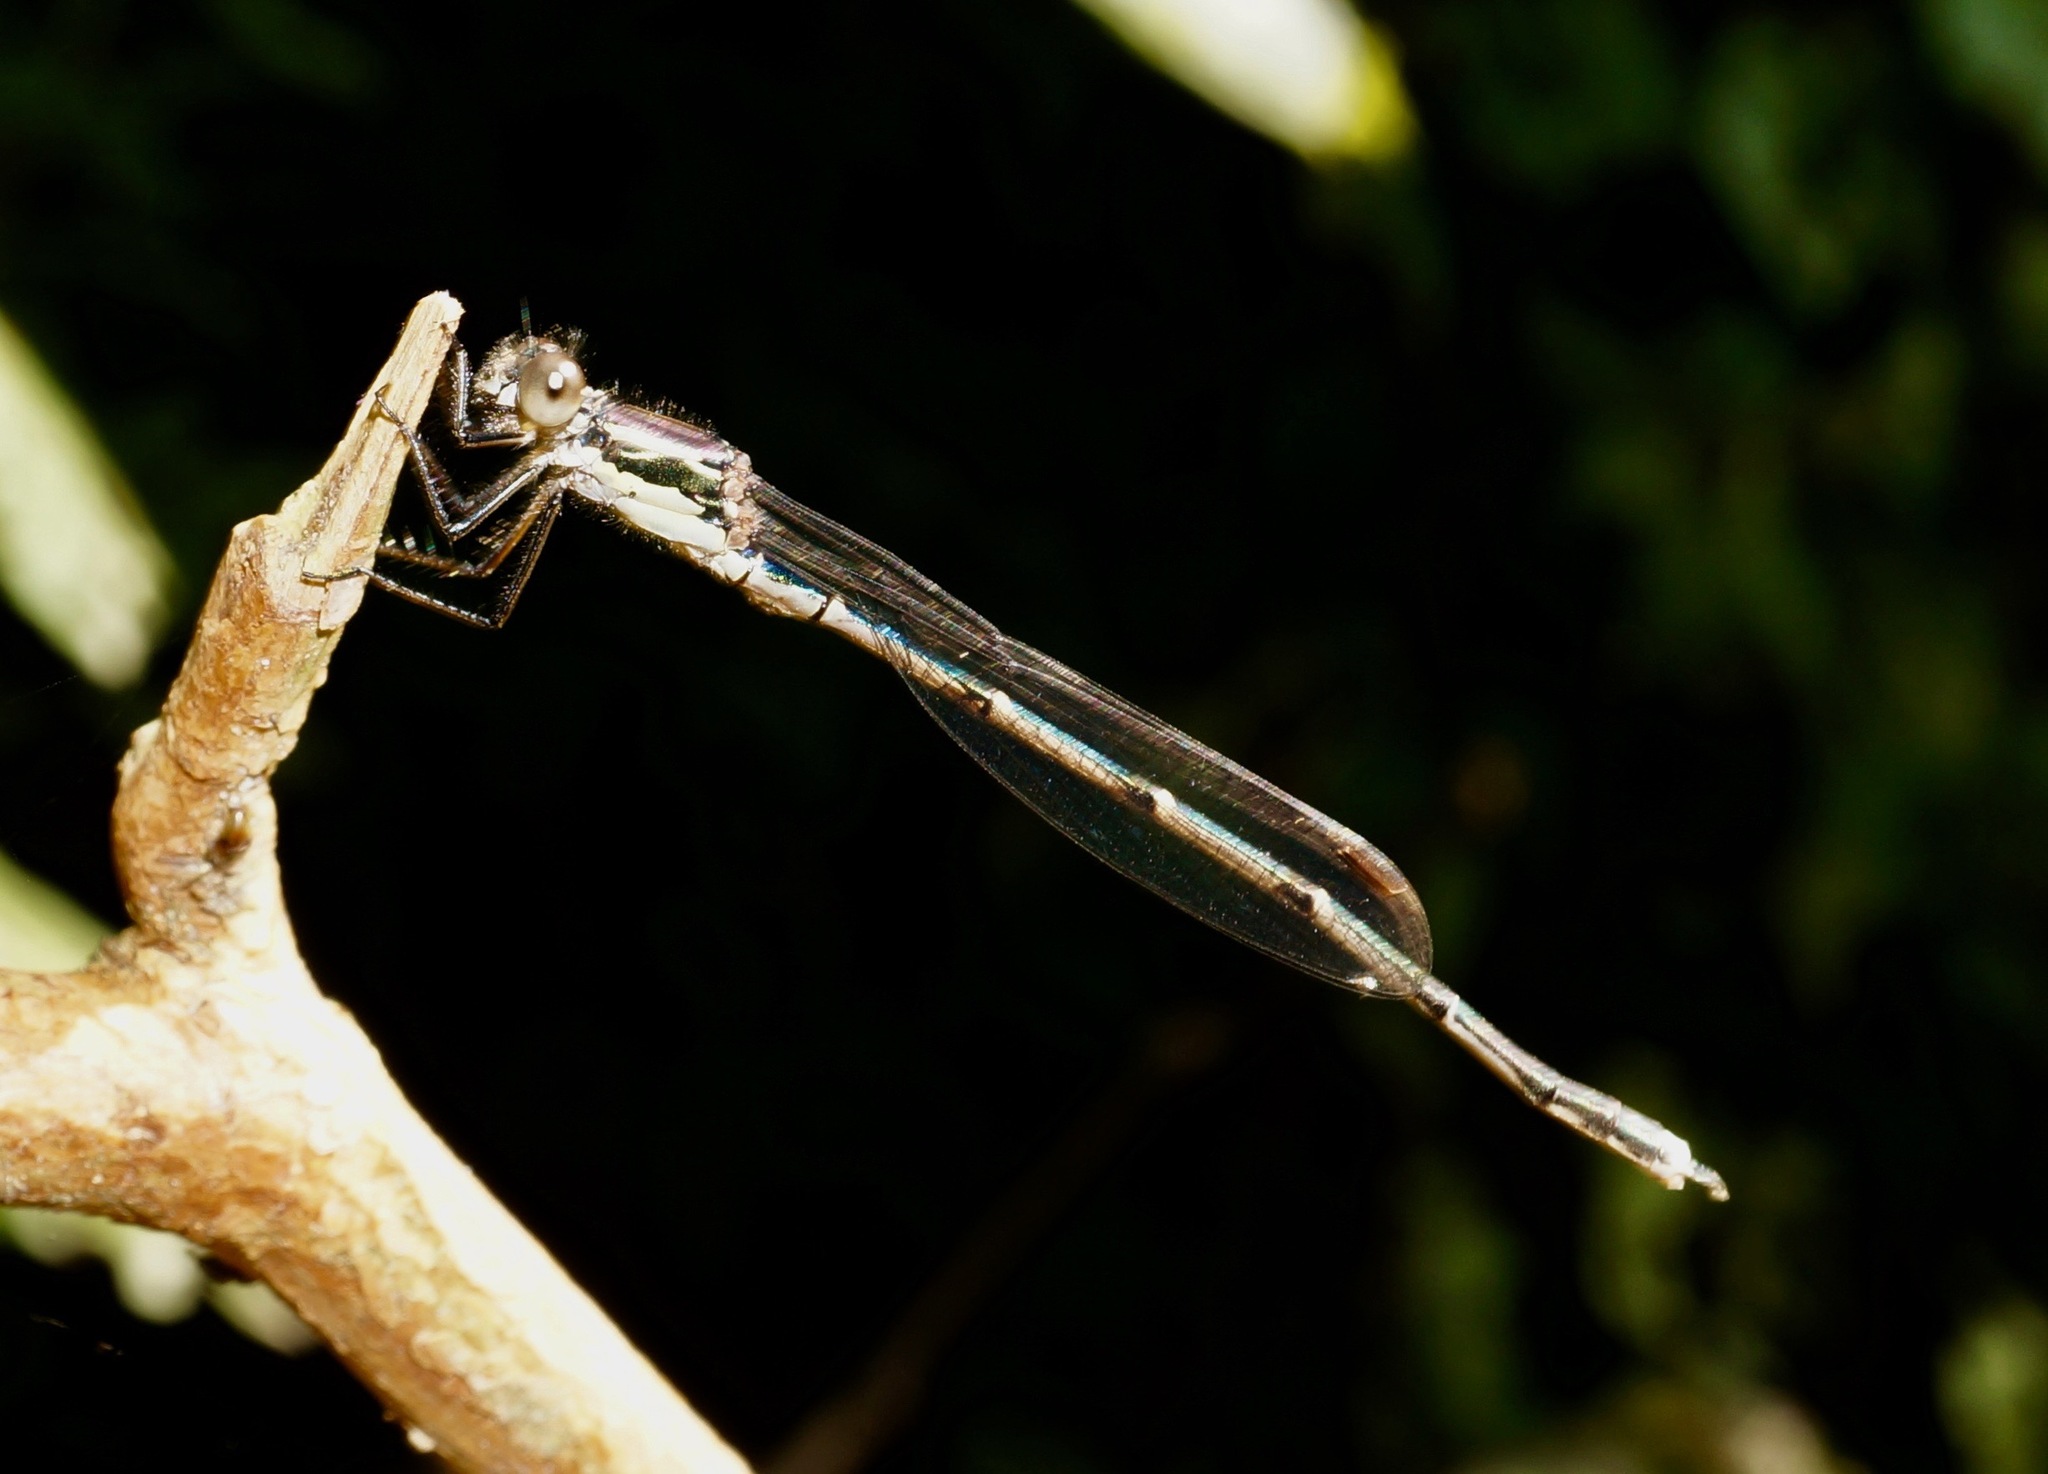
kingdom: Animalia
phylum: Arthropoda
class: Insecta
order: Odonata
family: Lestidae
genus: Austrolestes
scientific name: Austrolestes colensonis
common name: Blue damselfly
